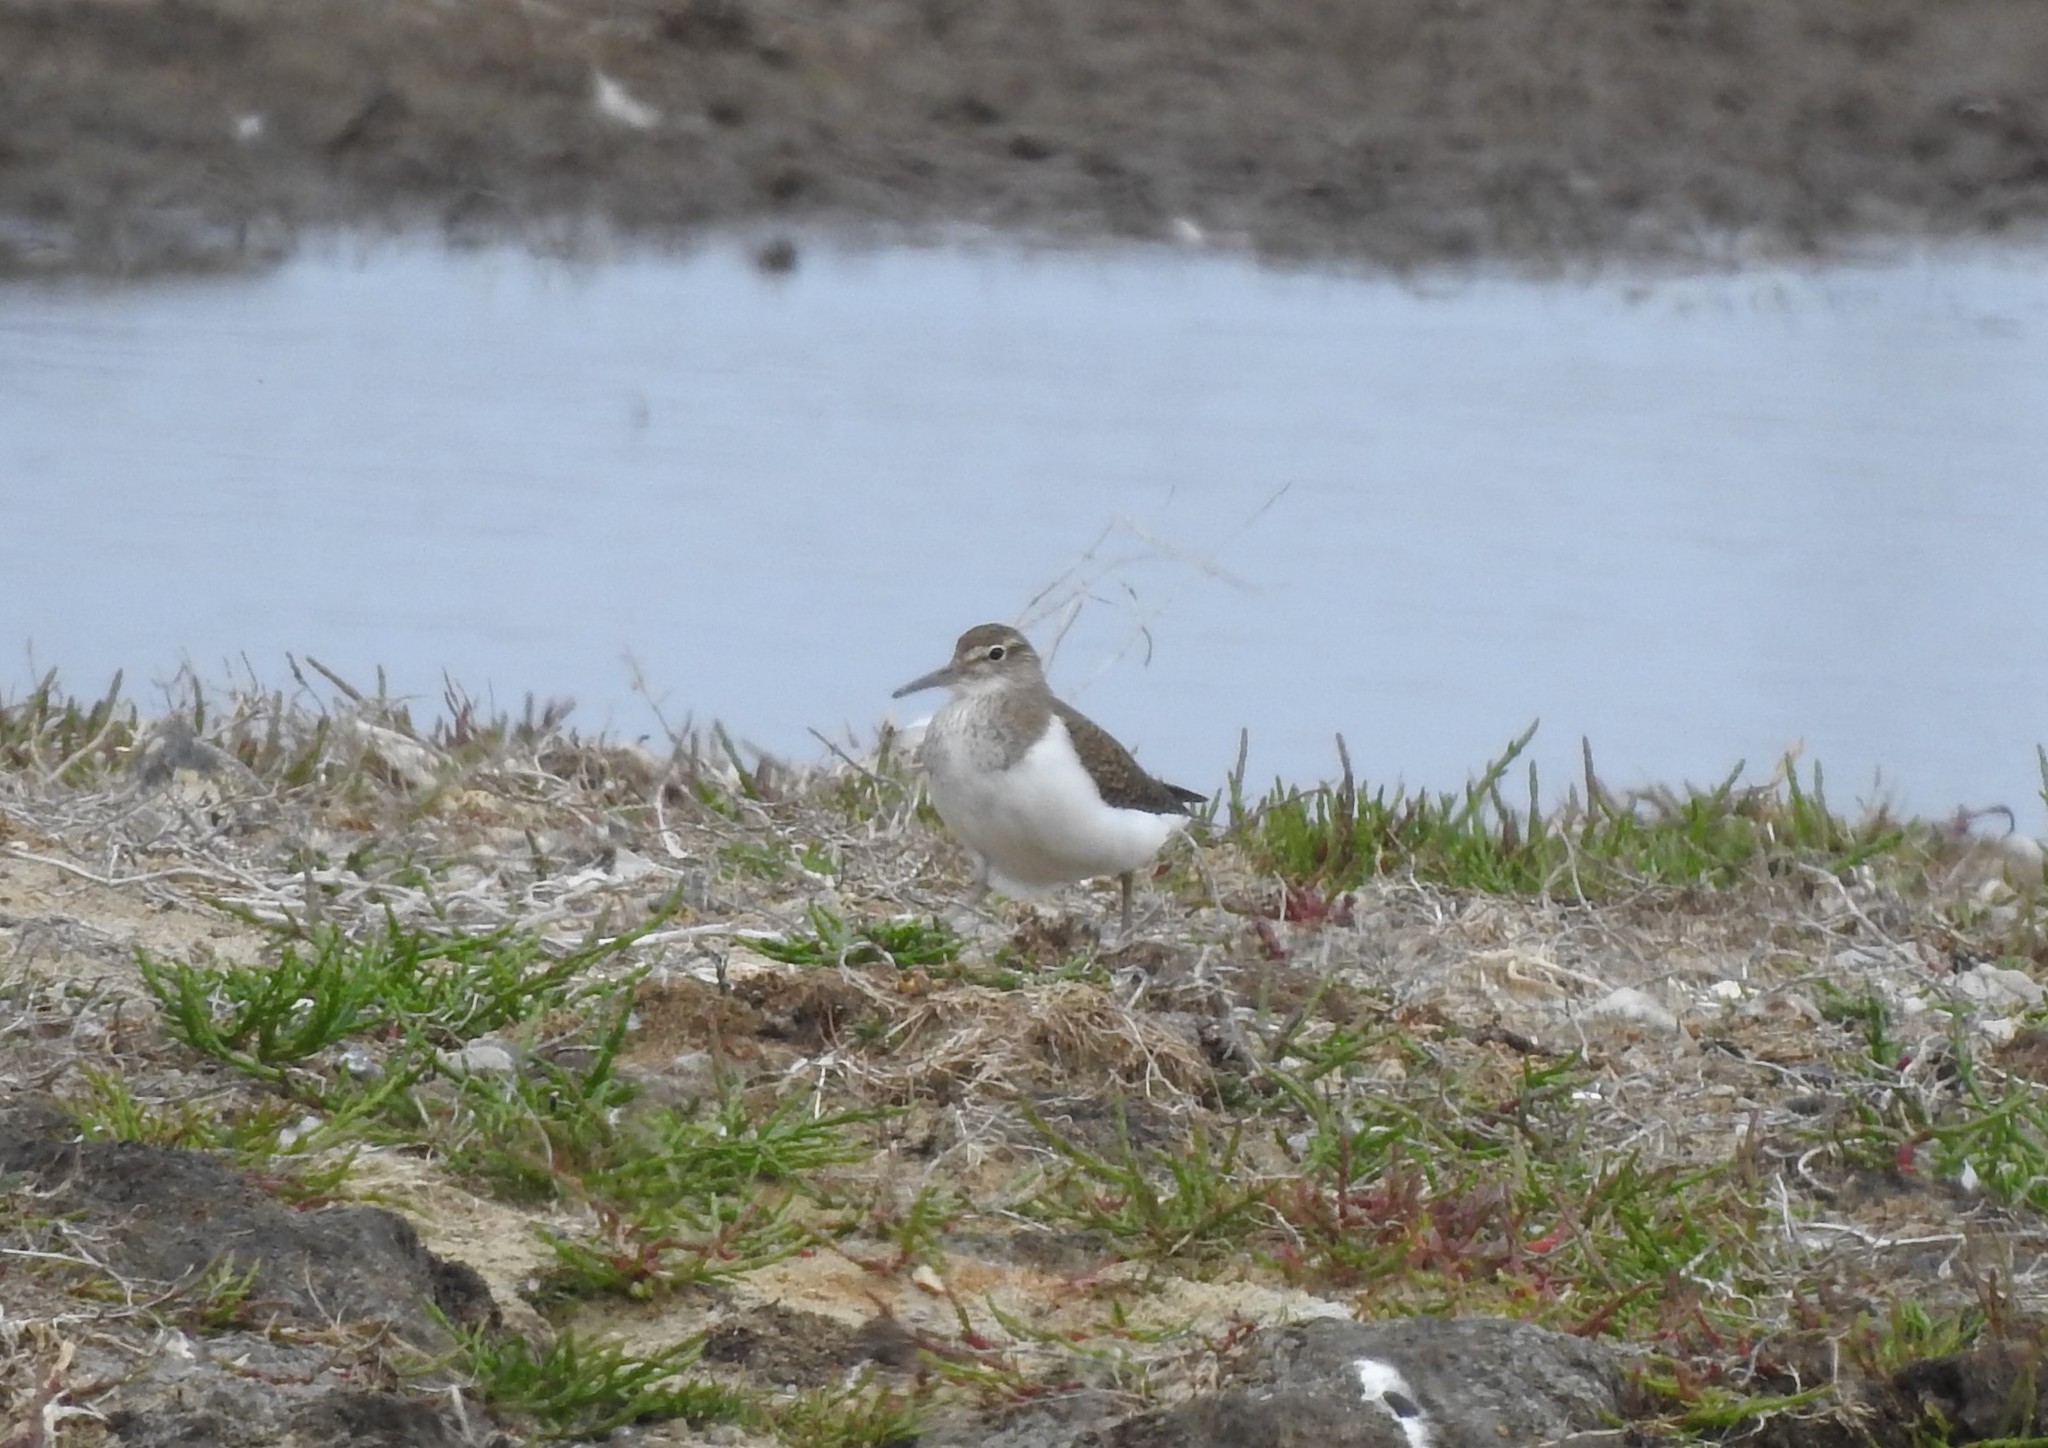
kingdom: Animalia
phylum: Chordata
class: Aves
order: Charadriiformes
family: Scolopacidae
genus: Actitis
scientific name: Actitis hypoleucos
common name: Common sandpiper
